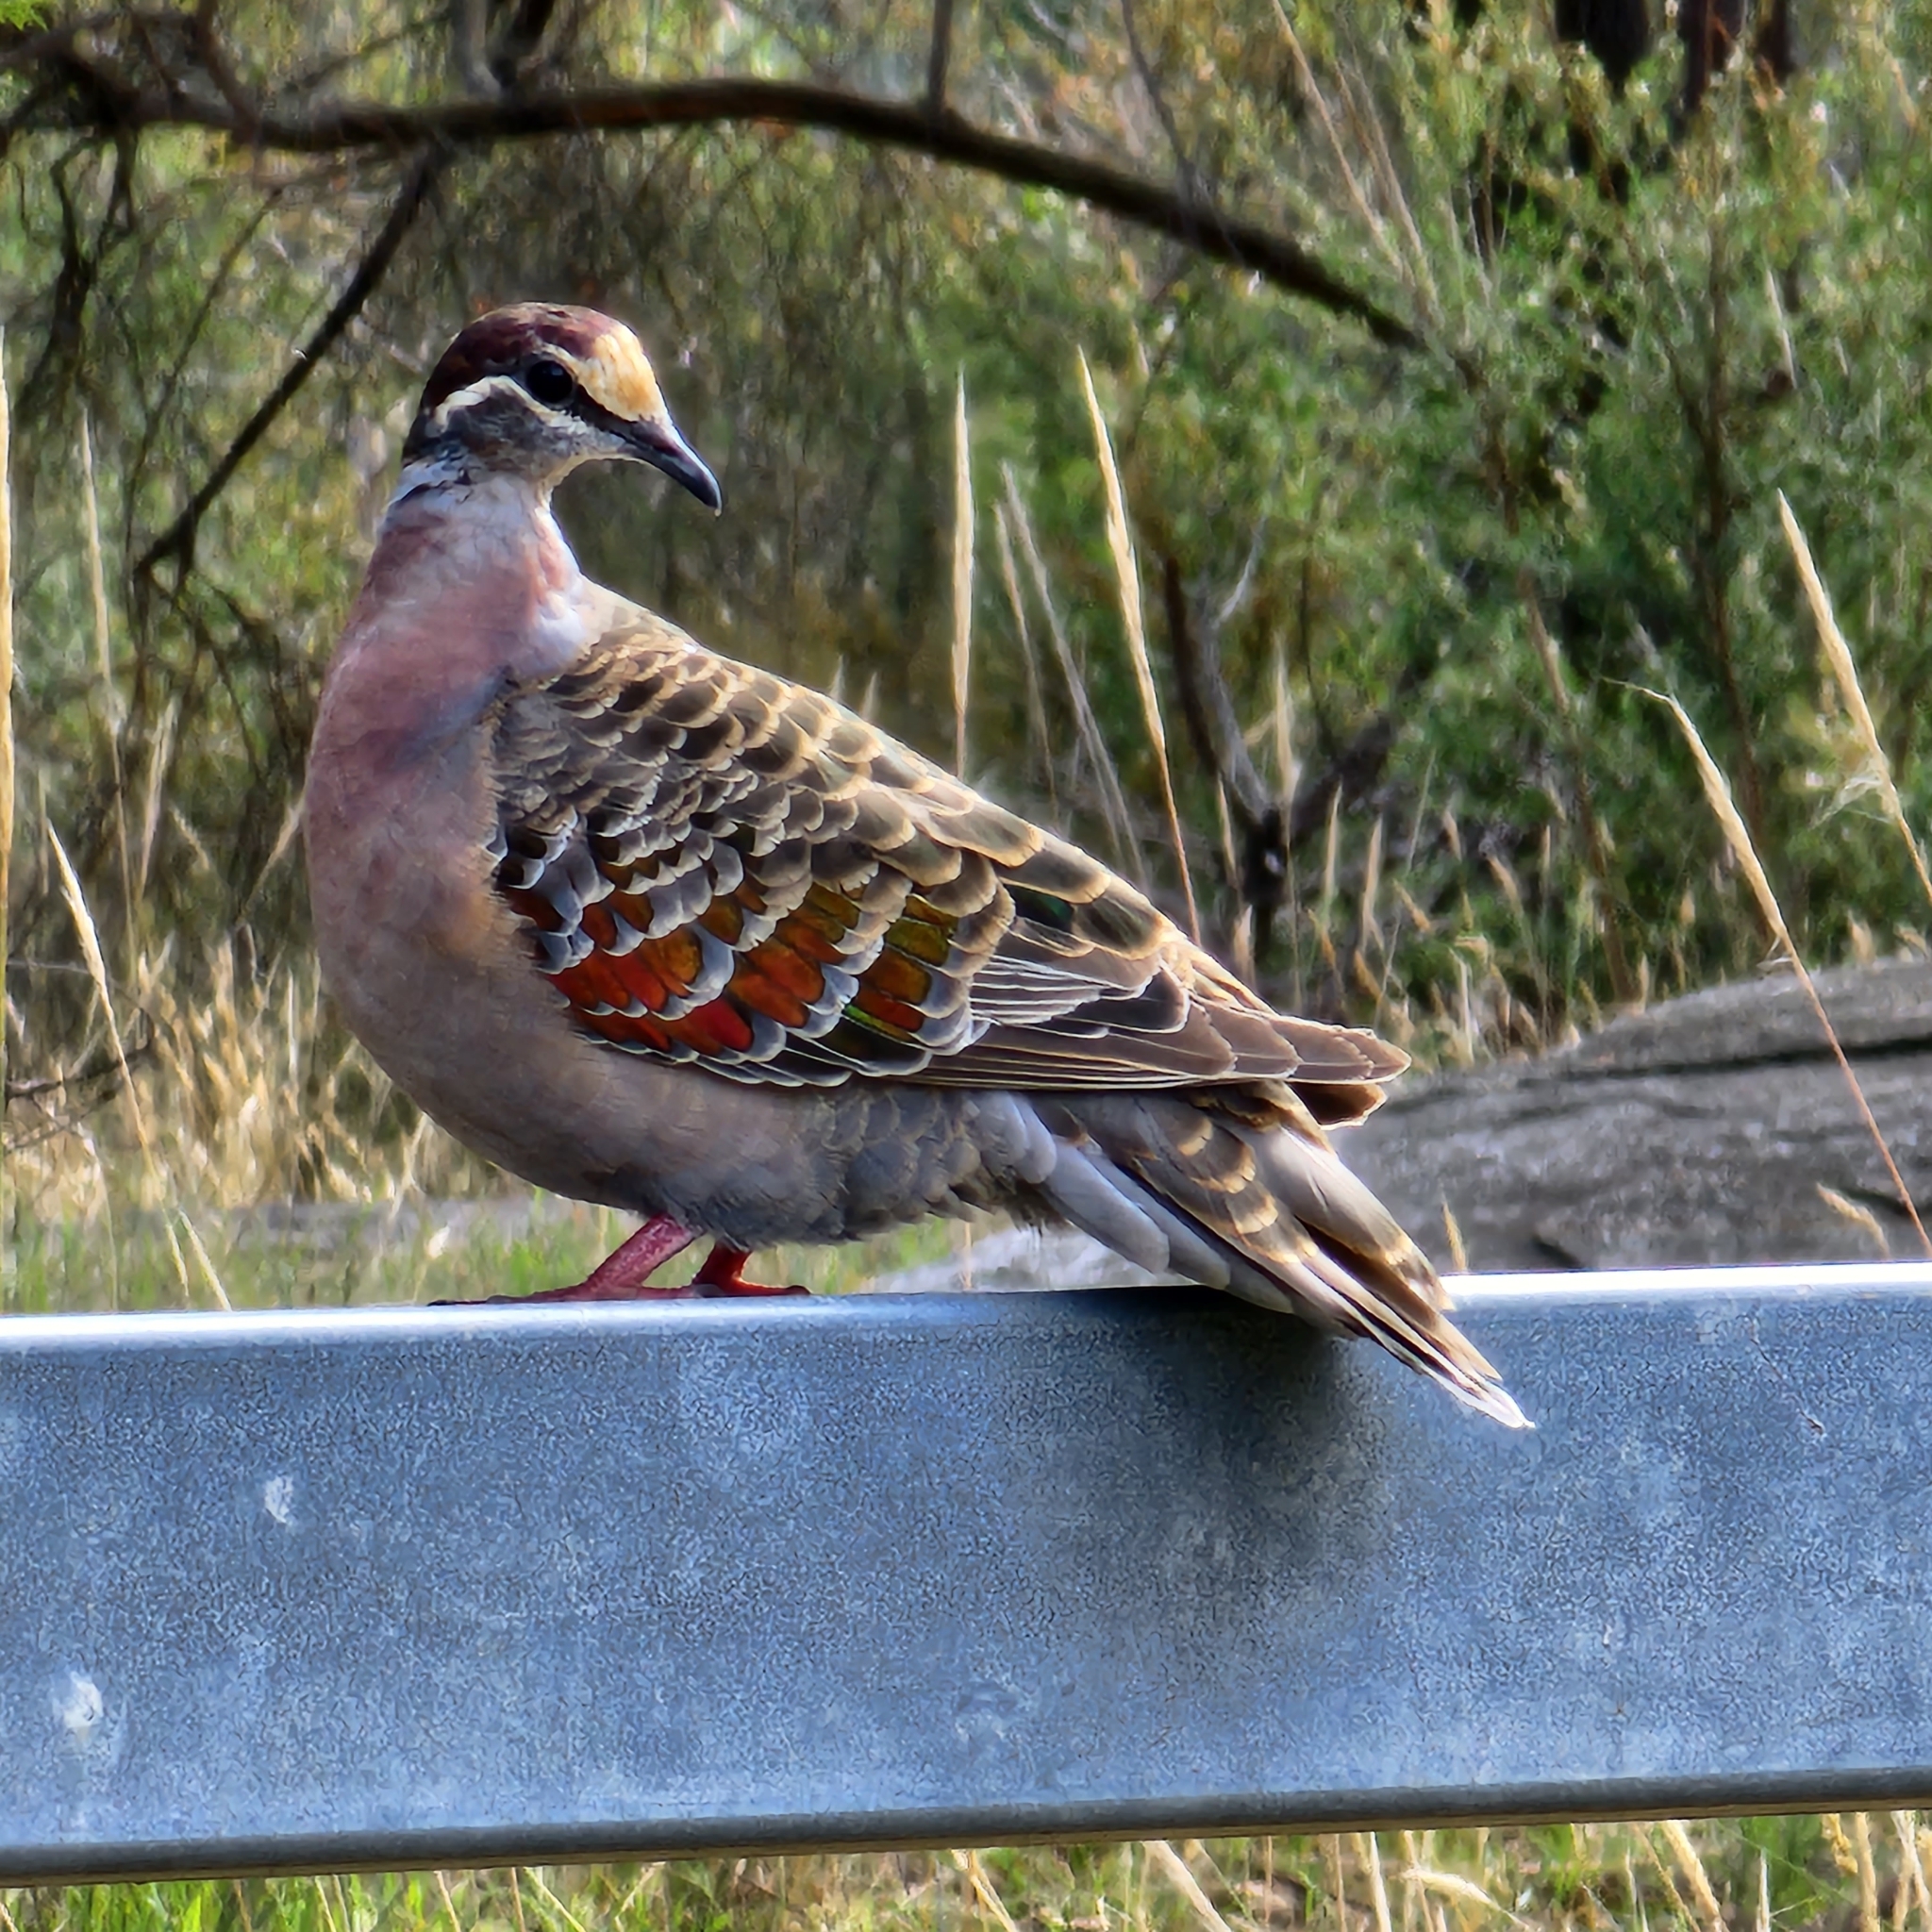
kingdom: Animalia
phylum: Chordata
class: Aves
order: Columbiformes
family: Columbidae
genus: Phaps
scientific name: Phaps chalcoptera
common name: Common bronzewing
